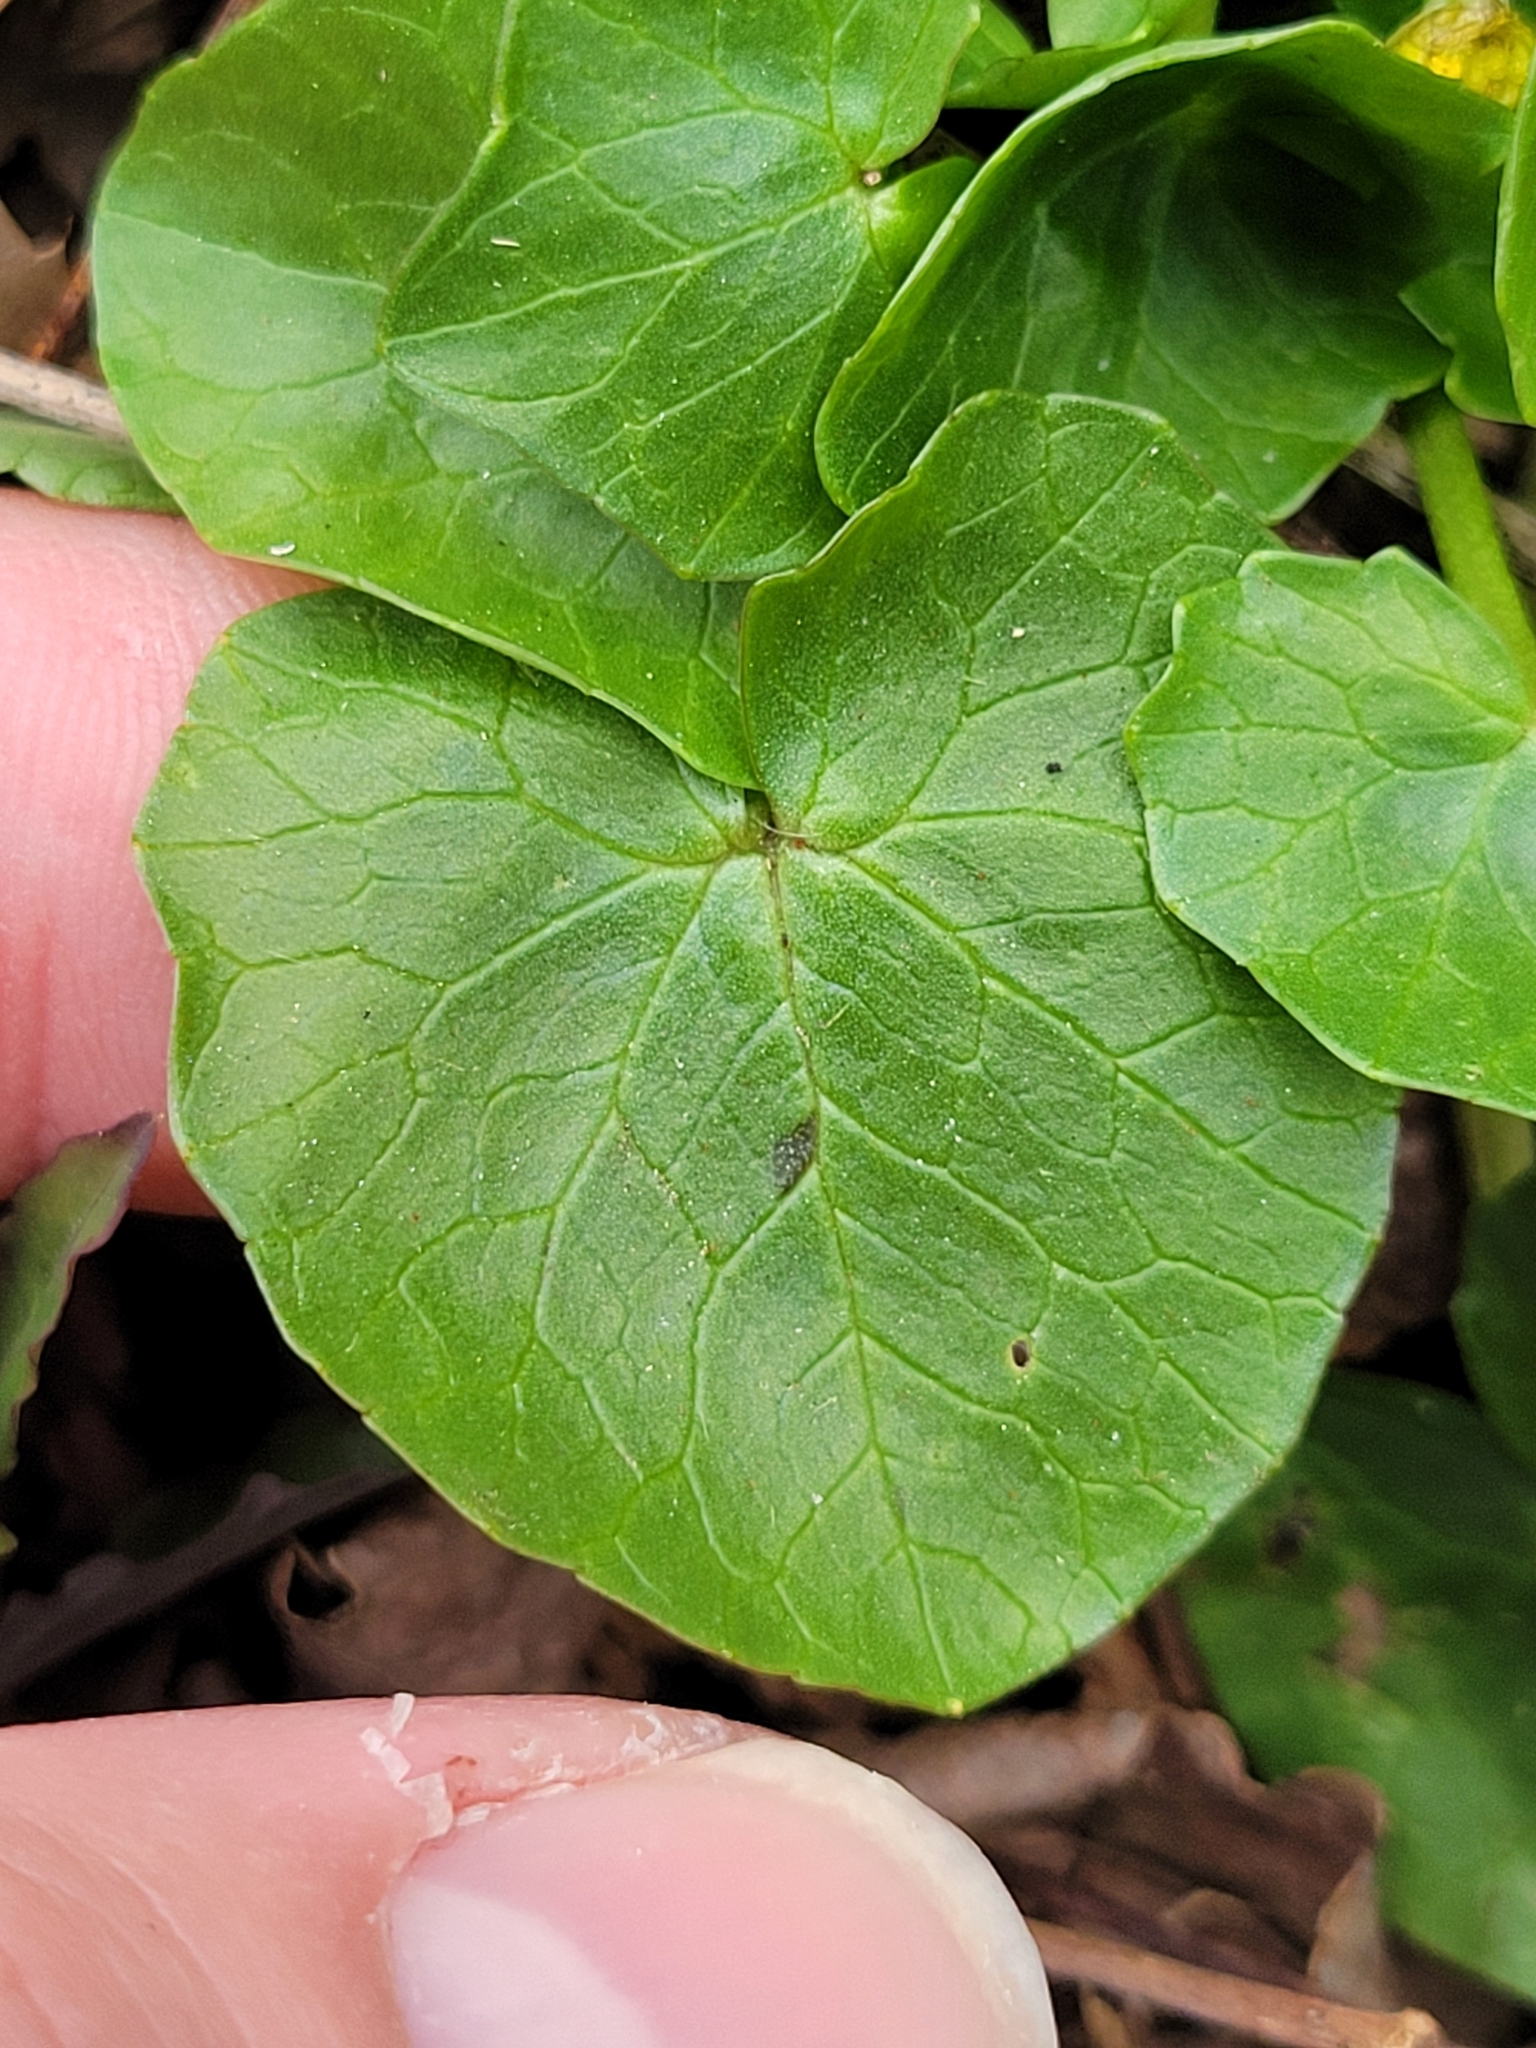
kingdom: Plantae
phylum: Tracheophyta
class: Magnoliopsida
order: Ranunculales
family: Ranunculaceae
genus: Ficaria
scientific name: Ficaria verna
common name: Lesser celandine
